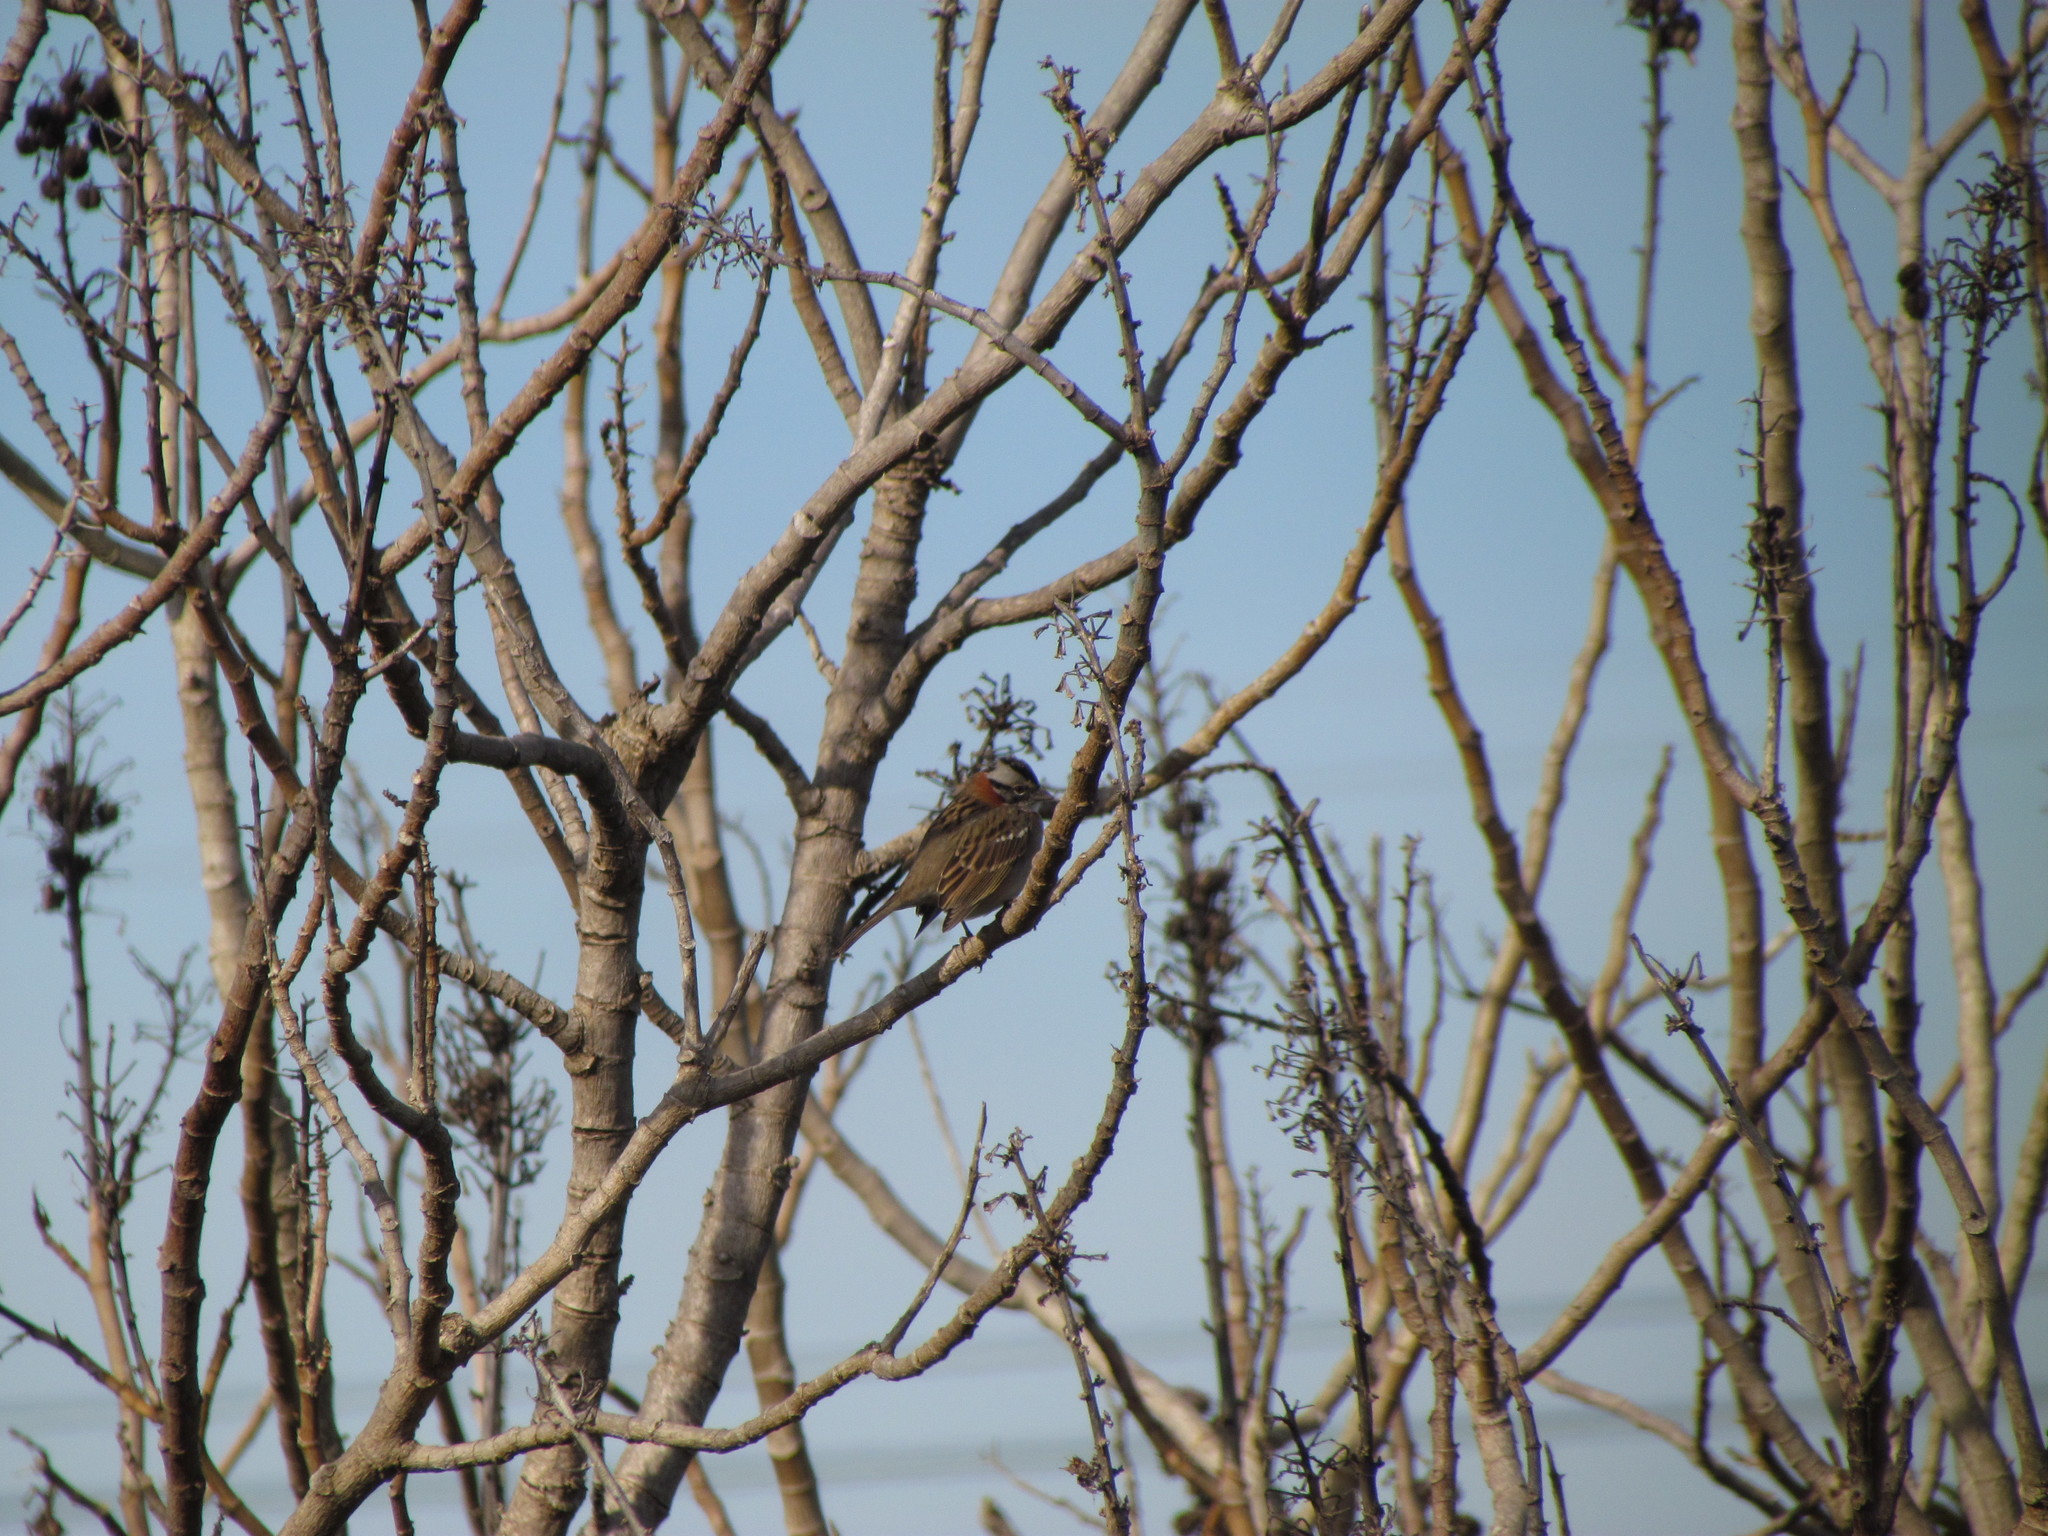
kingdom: Animalia
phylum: Chordata
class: Aves
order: Passeriformes
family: Passerellidae
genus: Zonotrichia
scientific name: Zonotrichia capensis
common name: Rufous-collared sparrow
